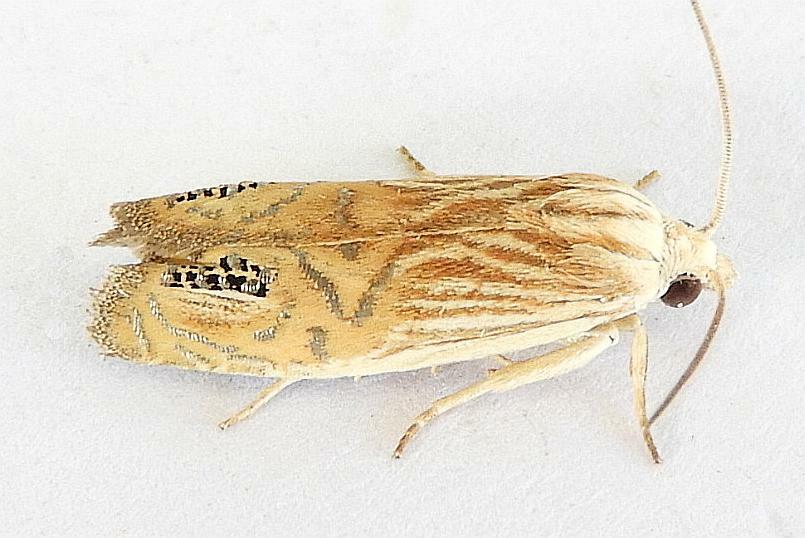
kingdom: Animalia
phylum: Arthropoda
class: Insecta
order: Lepidoptera
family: Tortricidae
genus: Eucosma
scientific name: Eucosma gemellana
